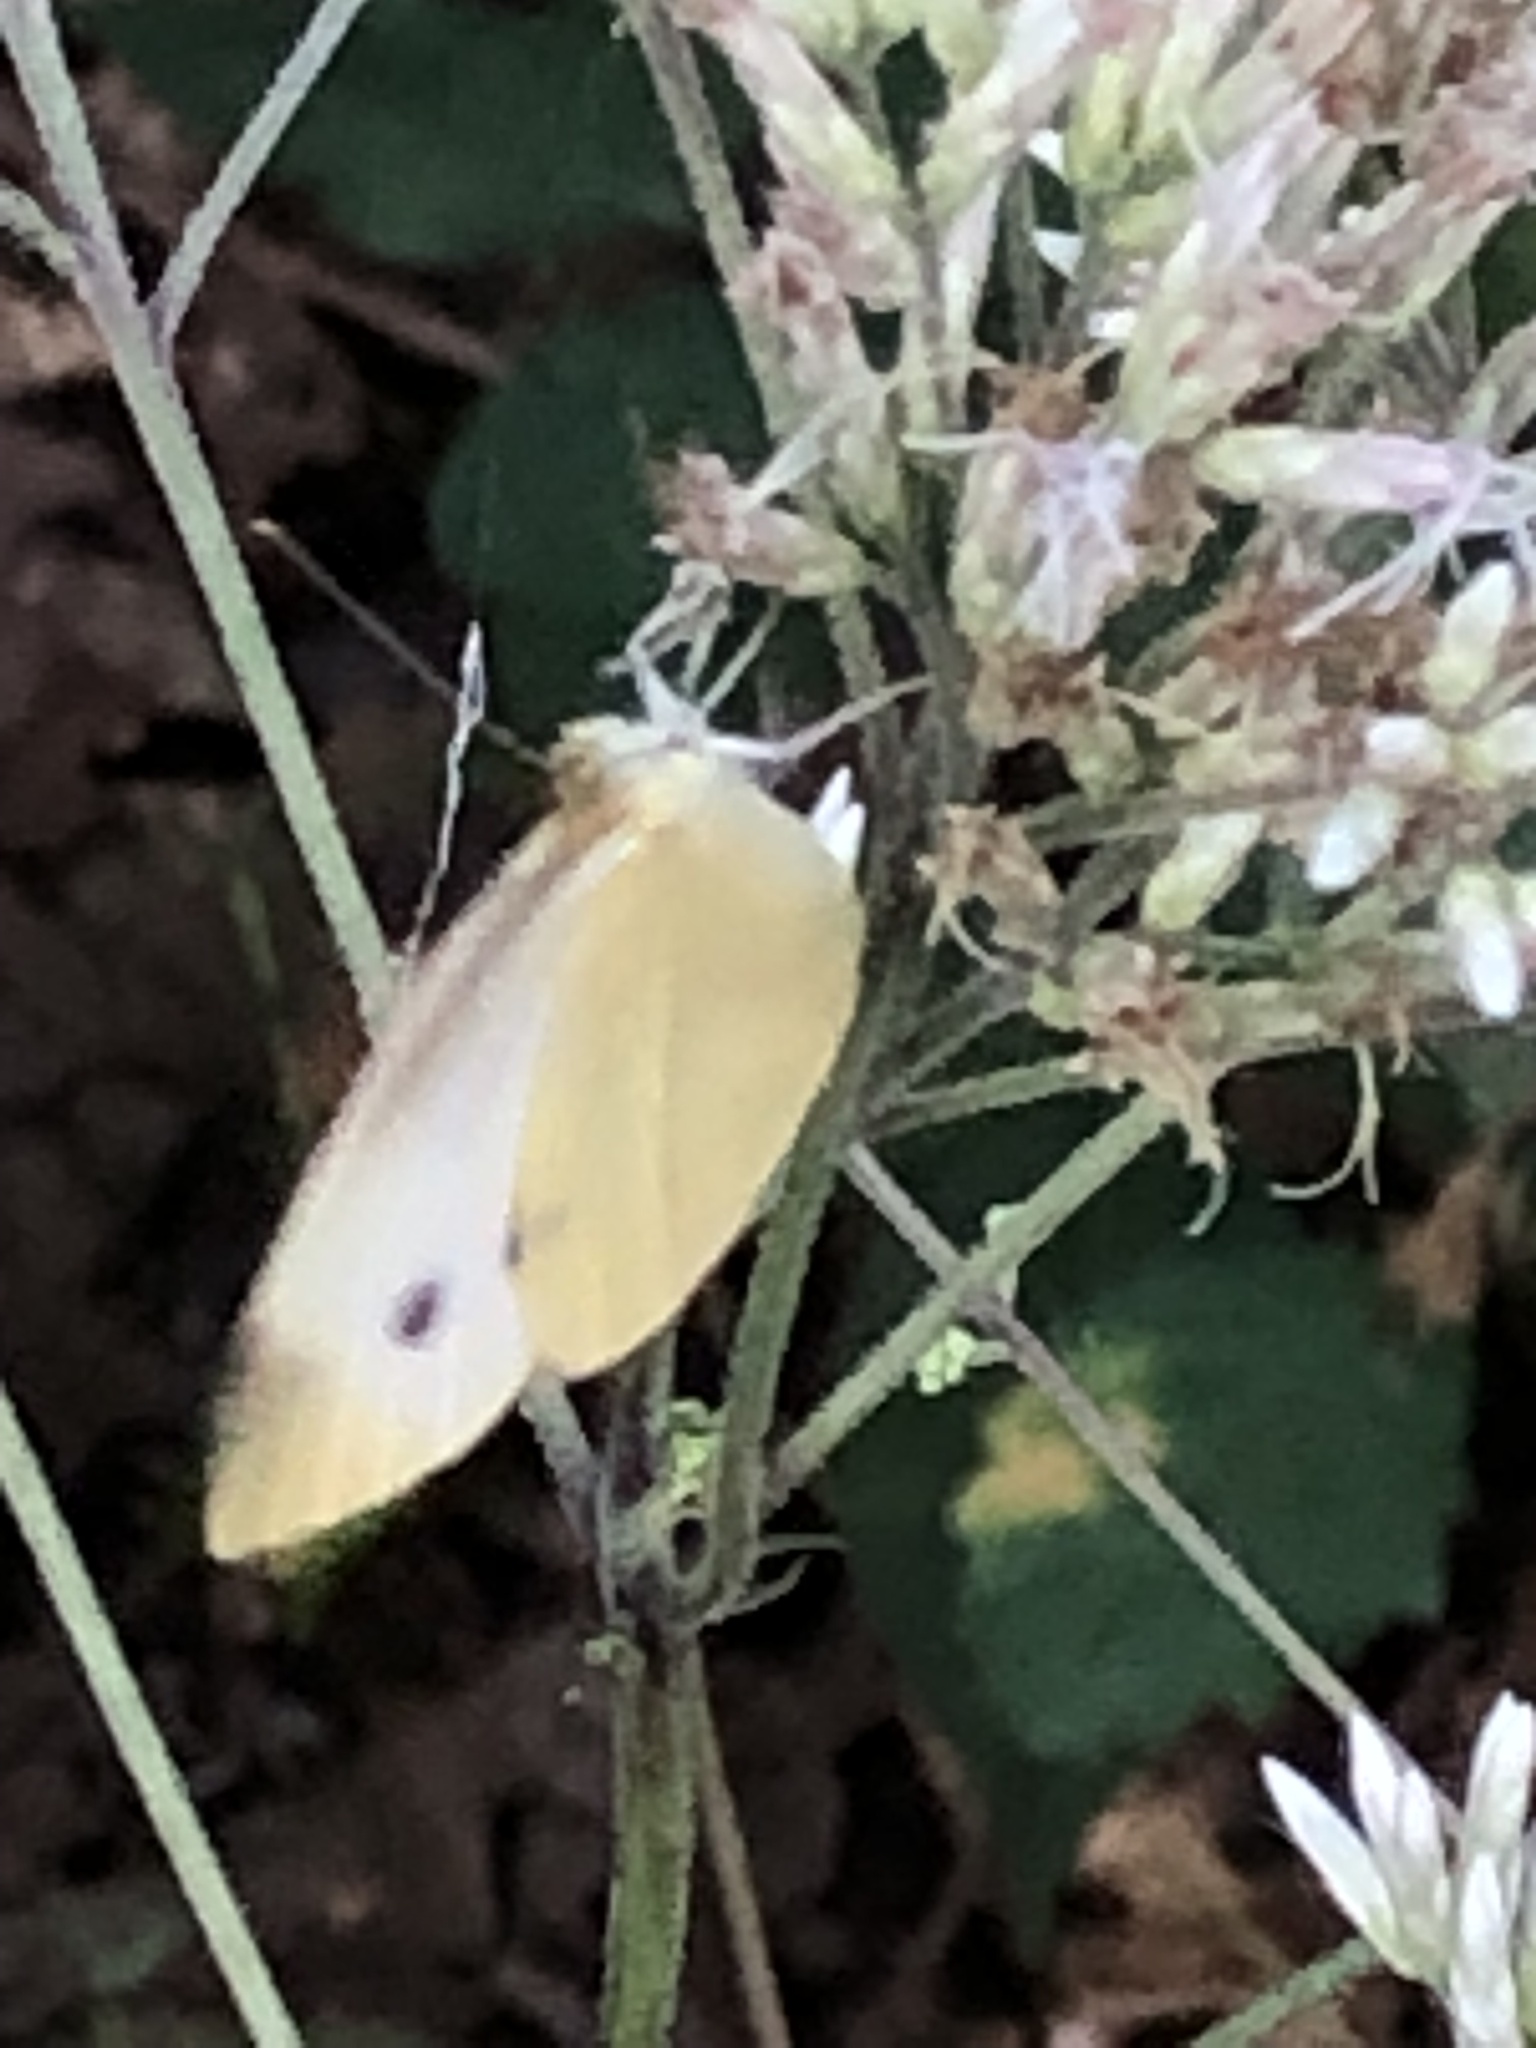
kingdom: Animalia
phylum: Arthropoda
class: Insecta
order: Lepidoptera
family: Pieridae
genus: Pieris
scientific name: Pieris rapae
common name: Small white
